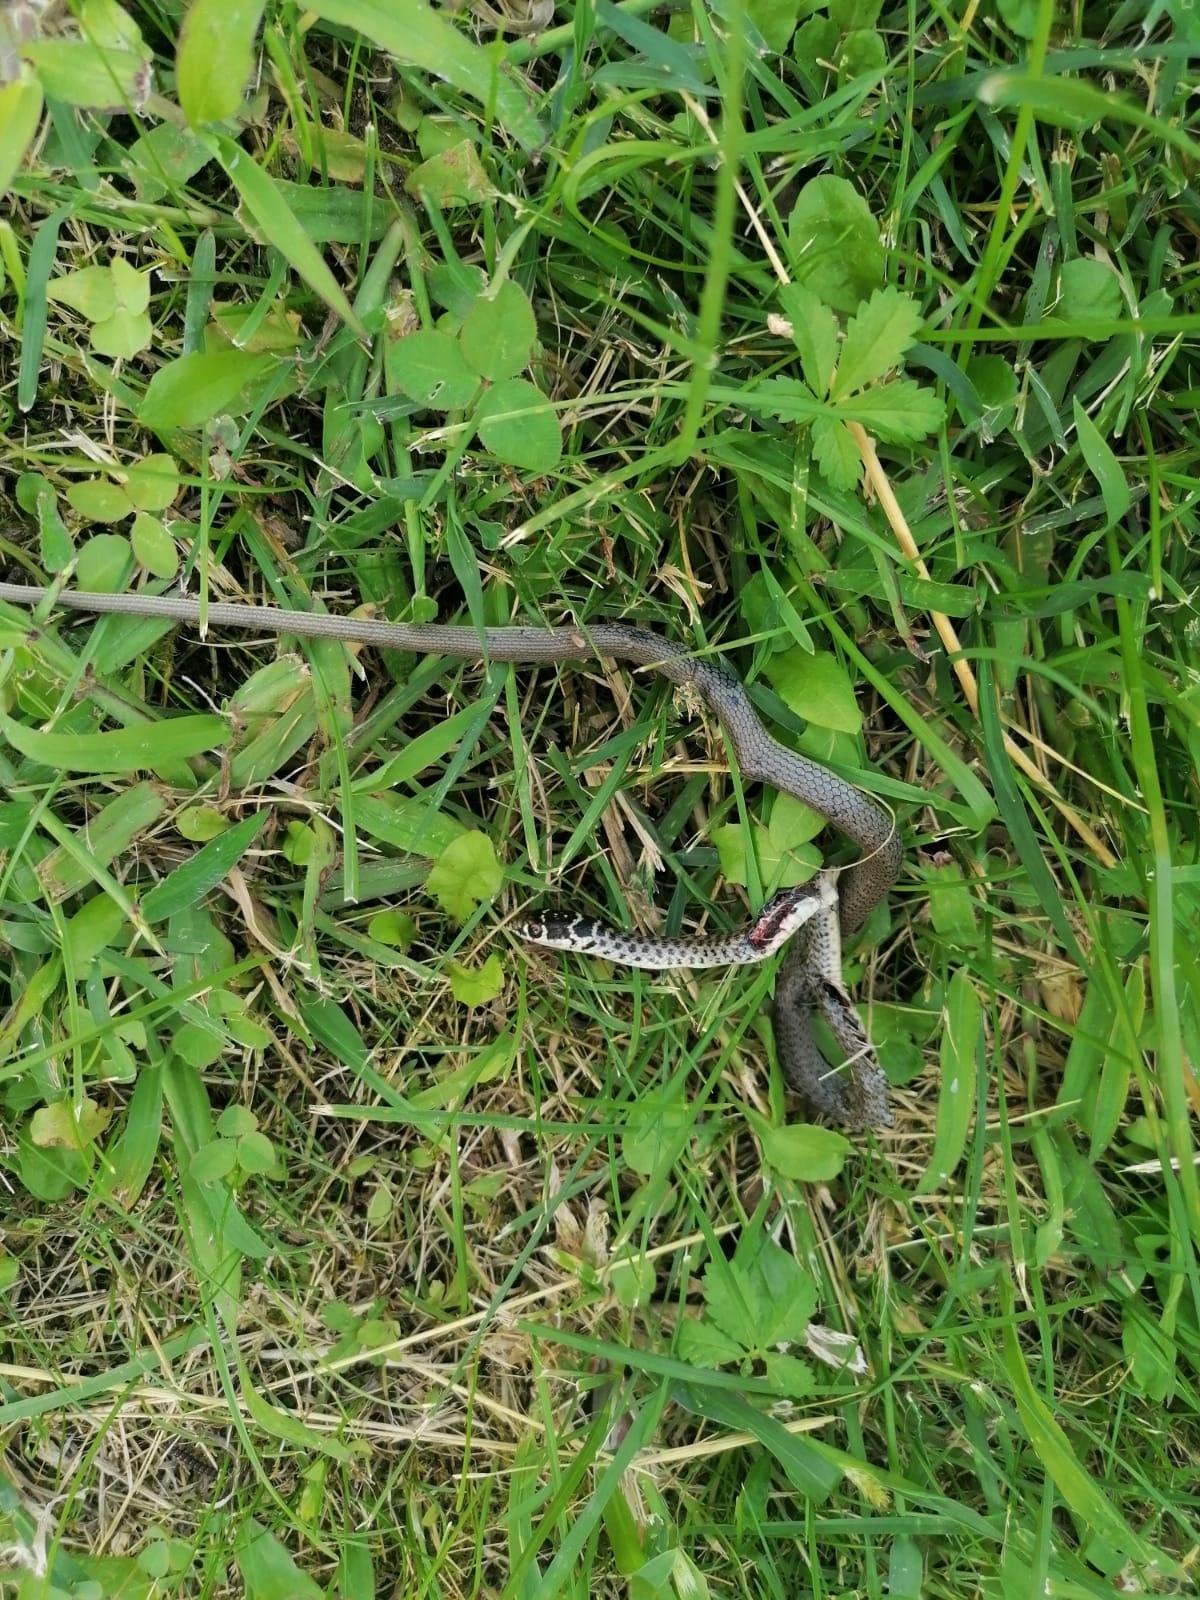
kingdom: Animalia
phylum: Chordata
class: Squamata
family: Colubridae
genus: Hierophis
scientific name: Hierophis viridiflavus
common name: Green whip snake
